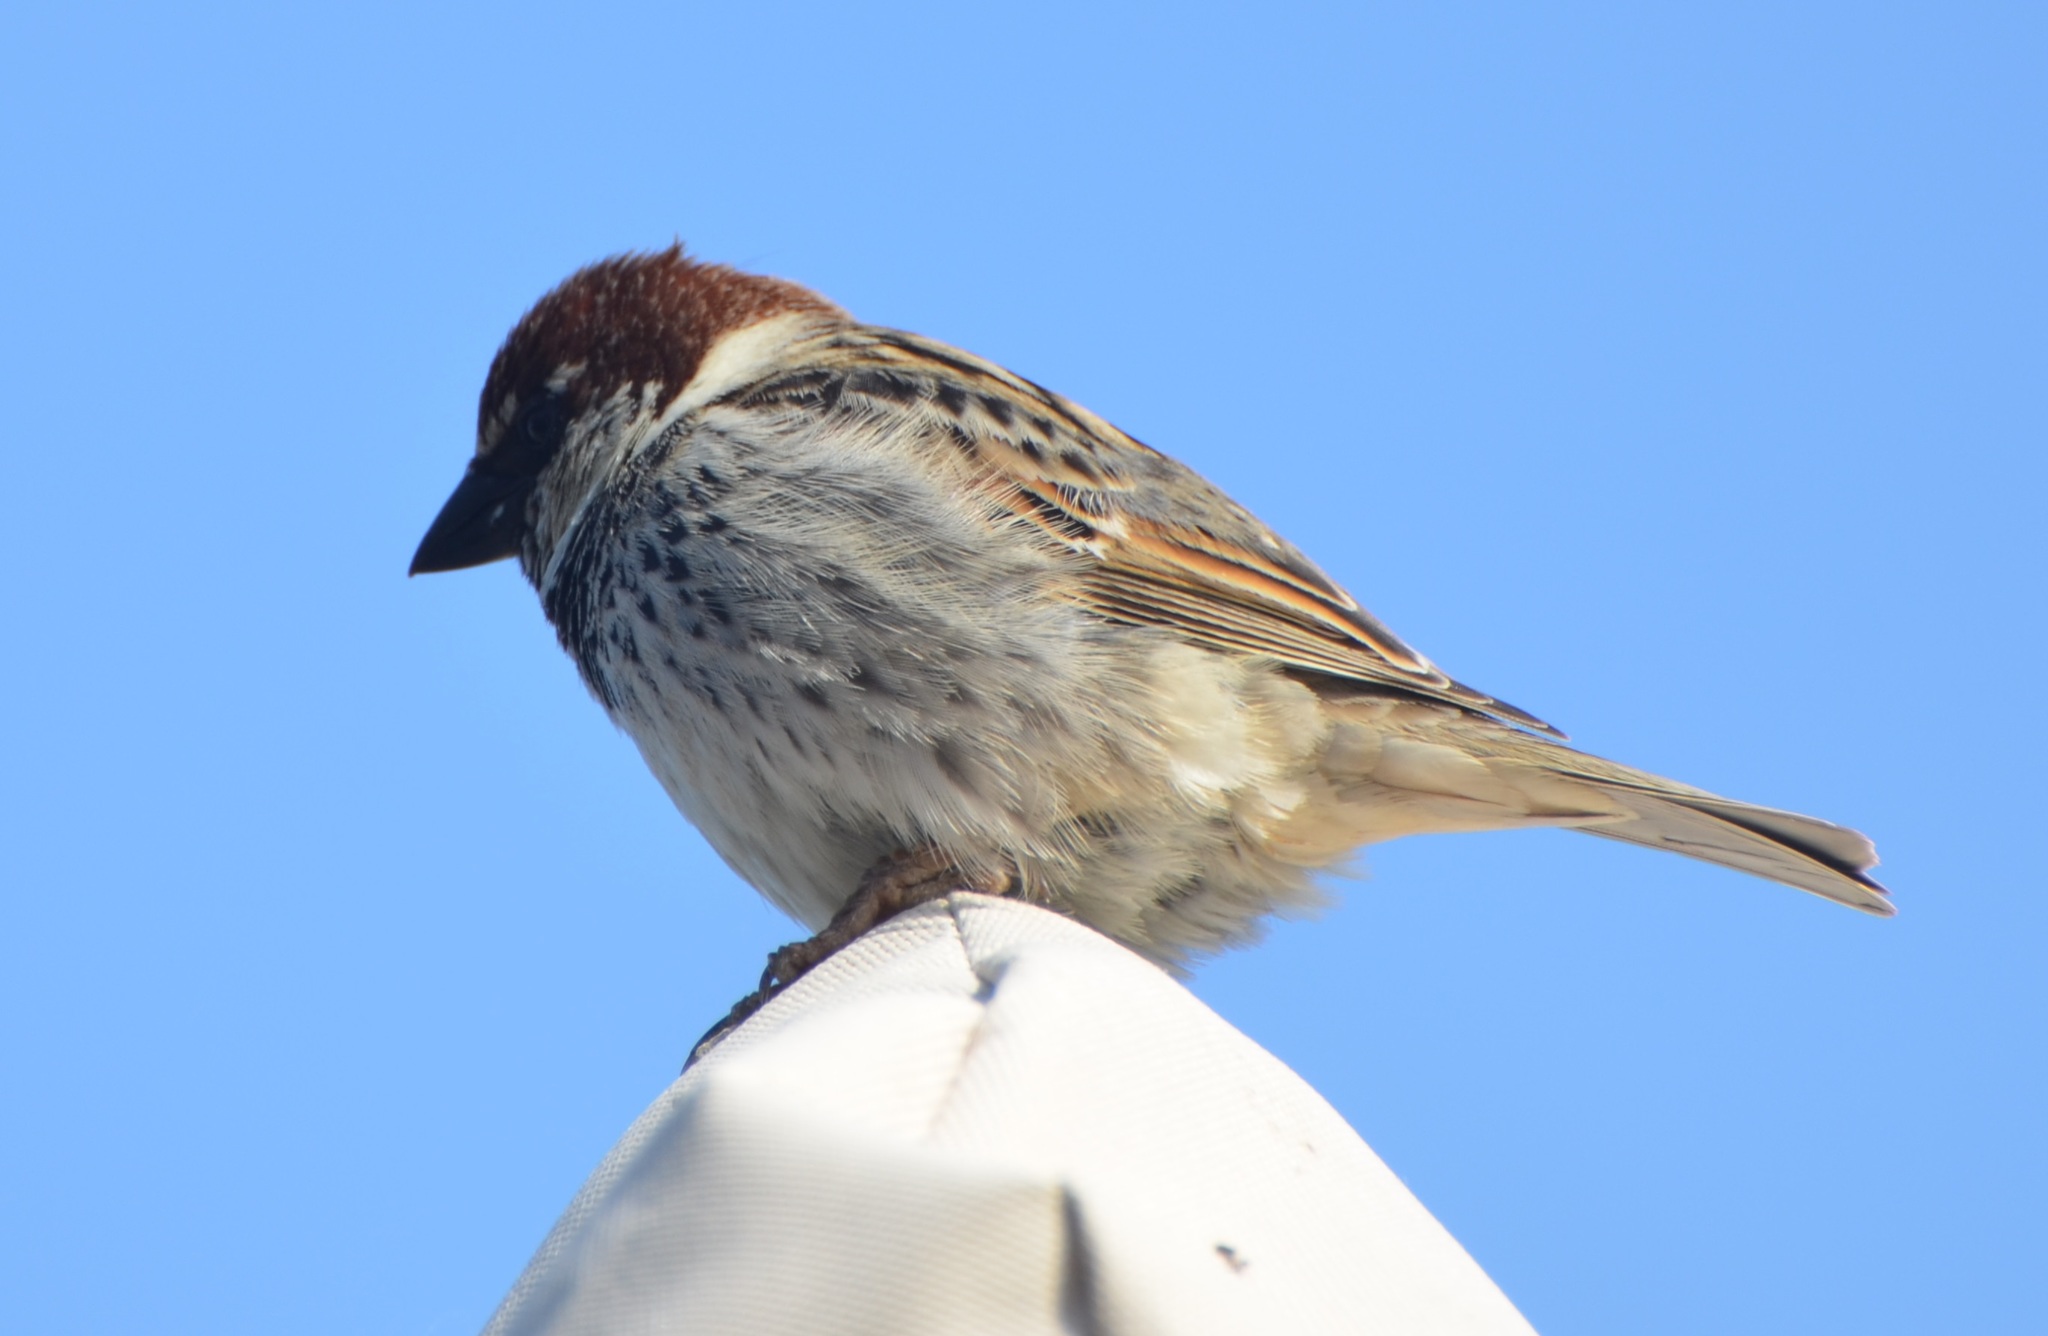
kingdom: Animalia
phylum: Chordata
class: Aves
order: Passeriformes
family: Passeridae
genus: Passer
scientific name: Passer hispaniolensis
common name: Spanish sparrow
